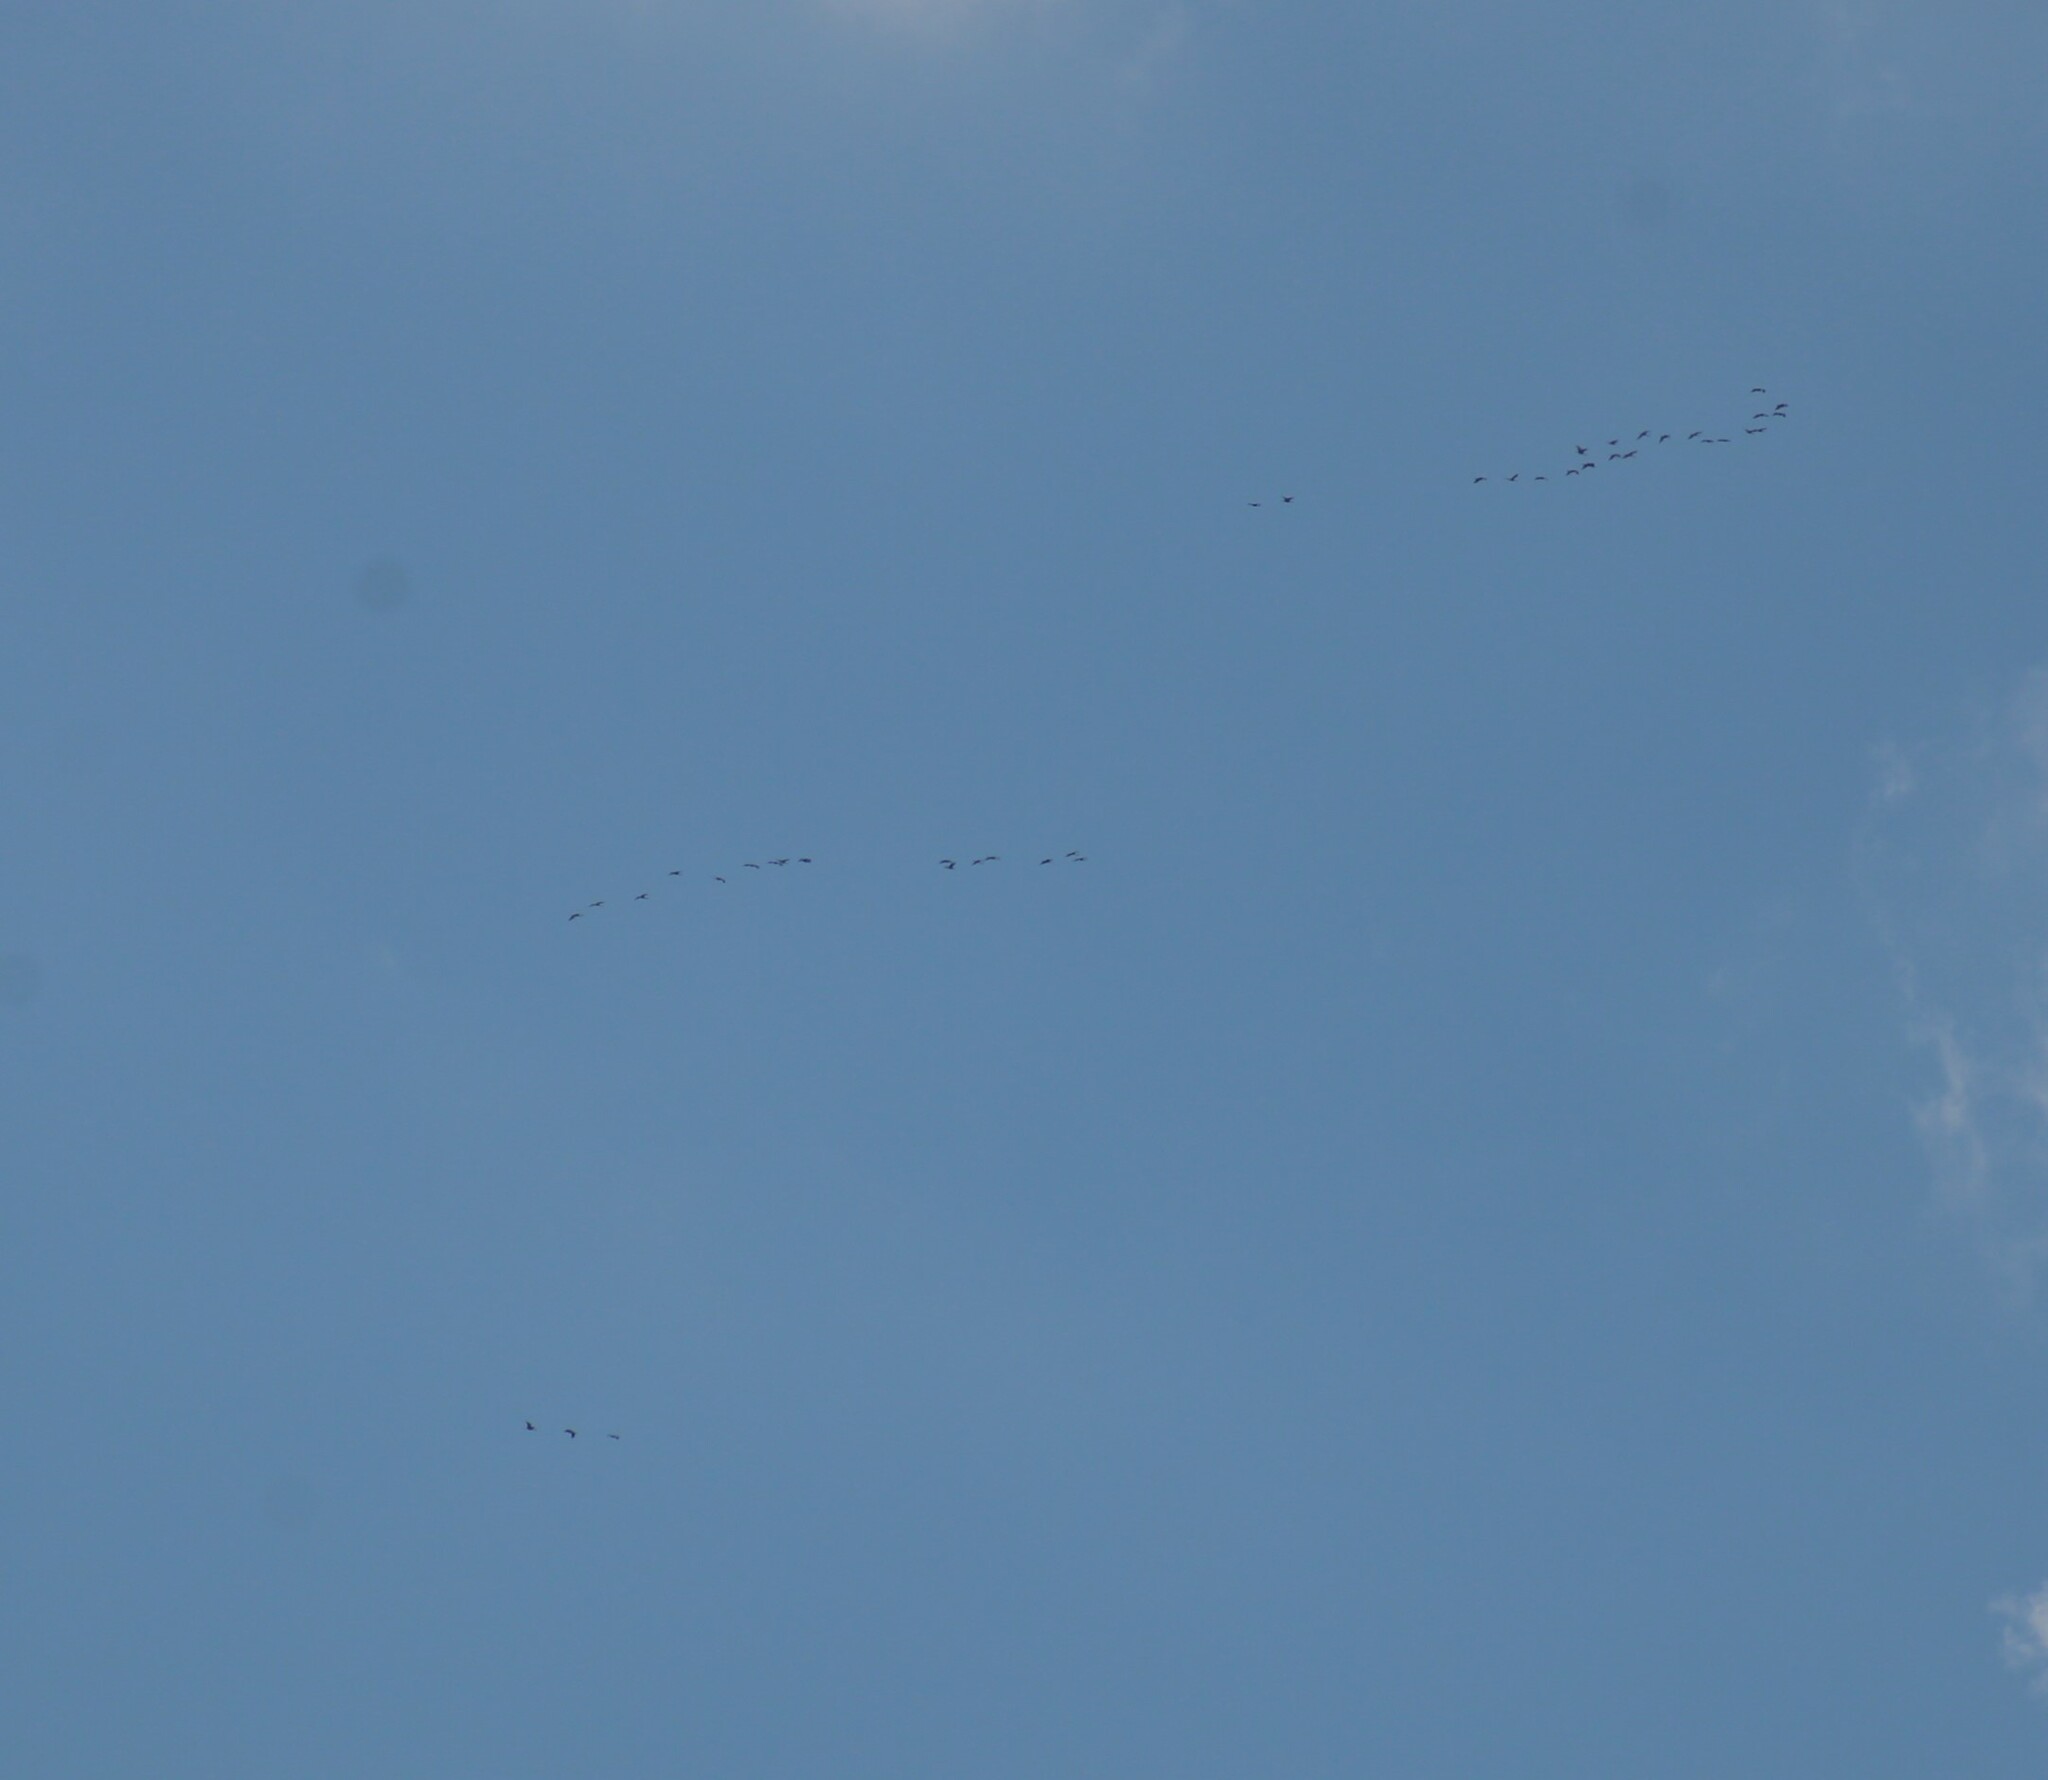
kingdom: Animalia
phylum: Chordata
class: Aves
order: Gruiformes
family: Gruidae
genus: Grus
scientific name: Grus grus
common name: Common crane
